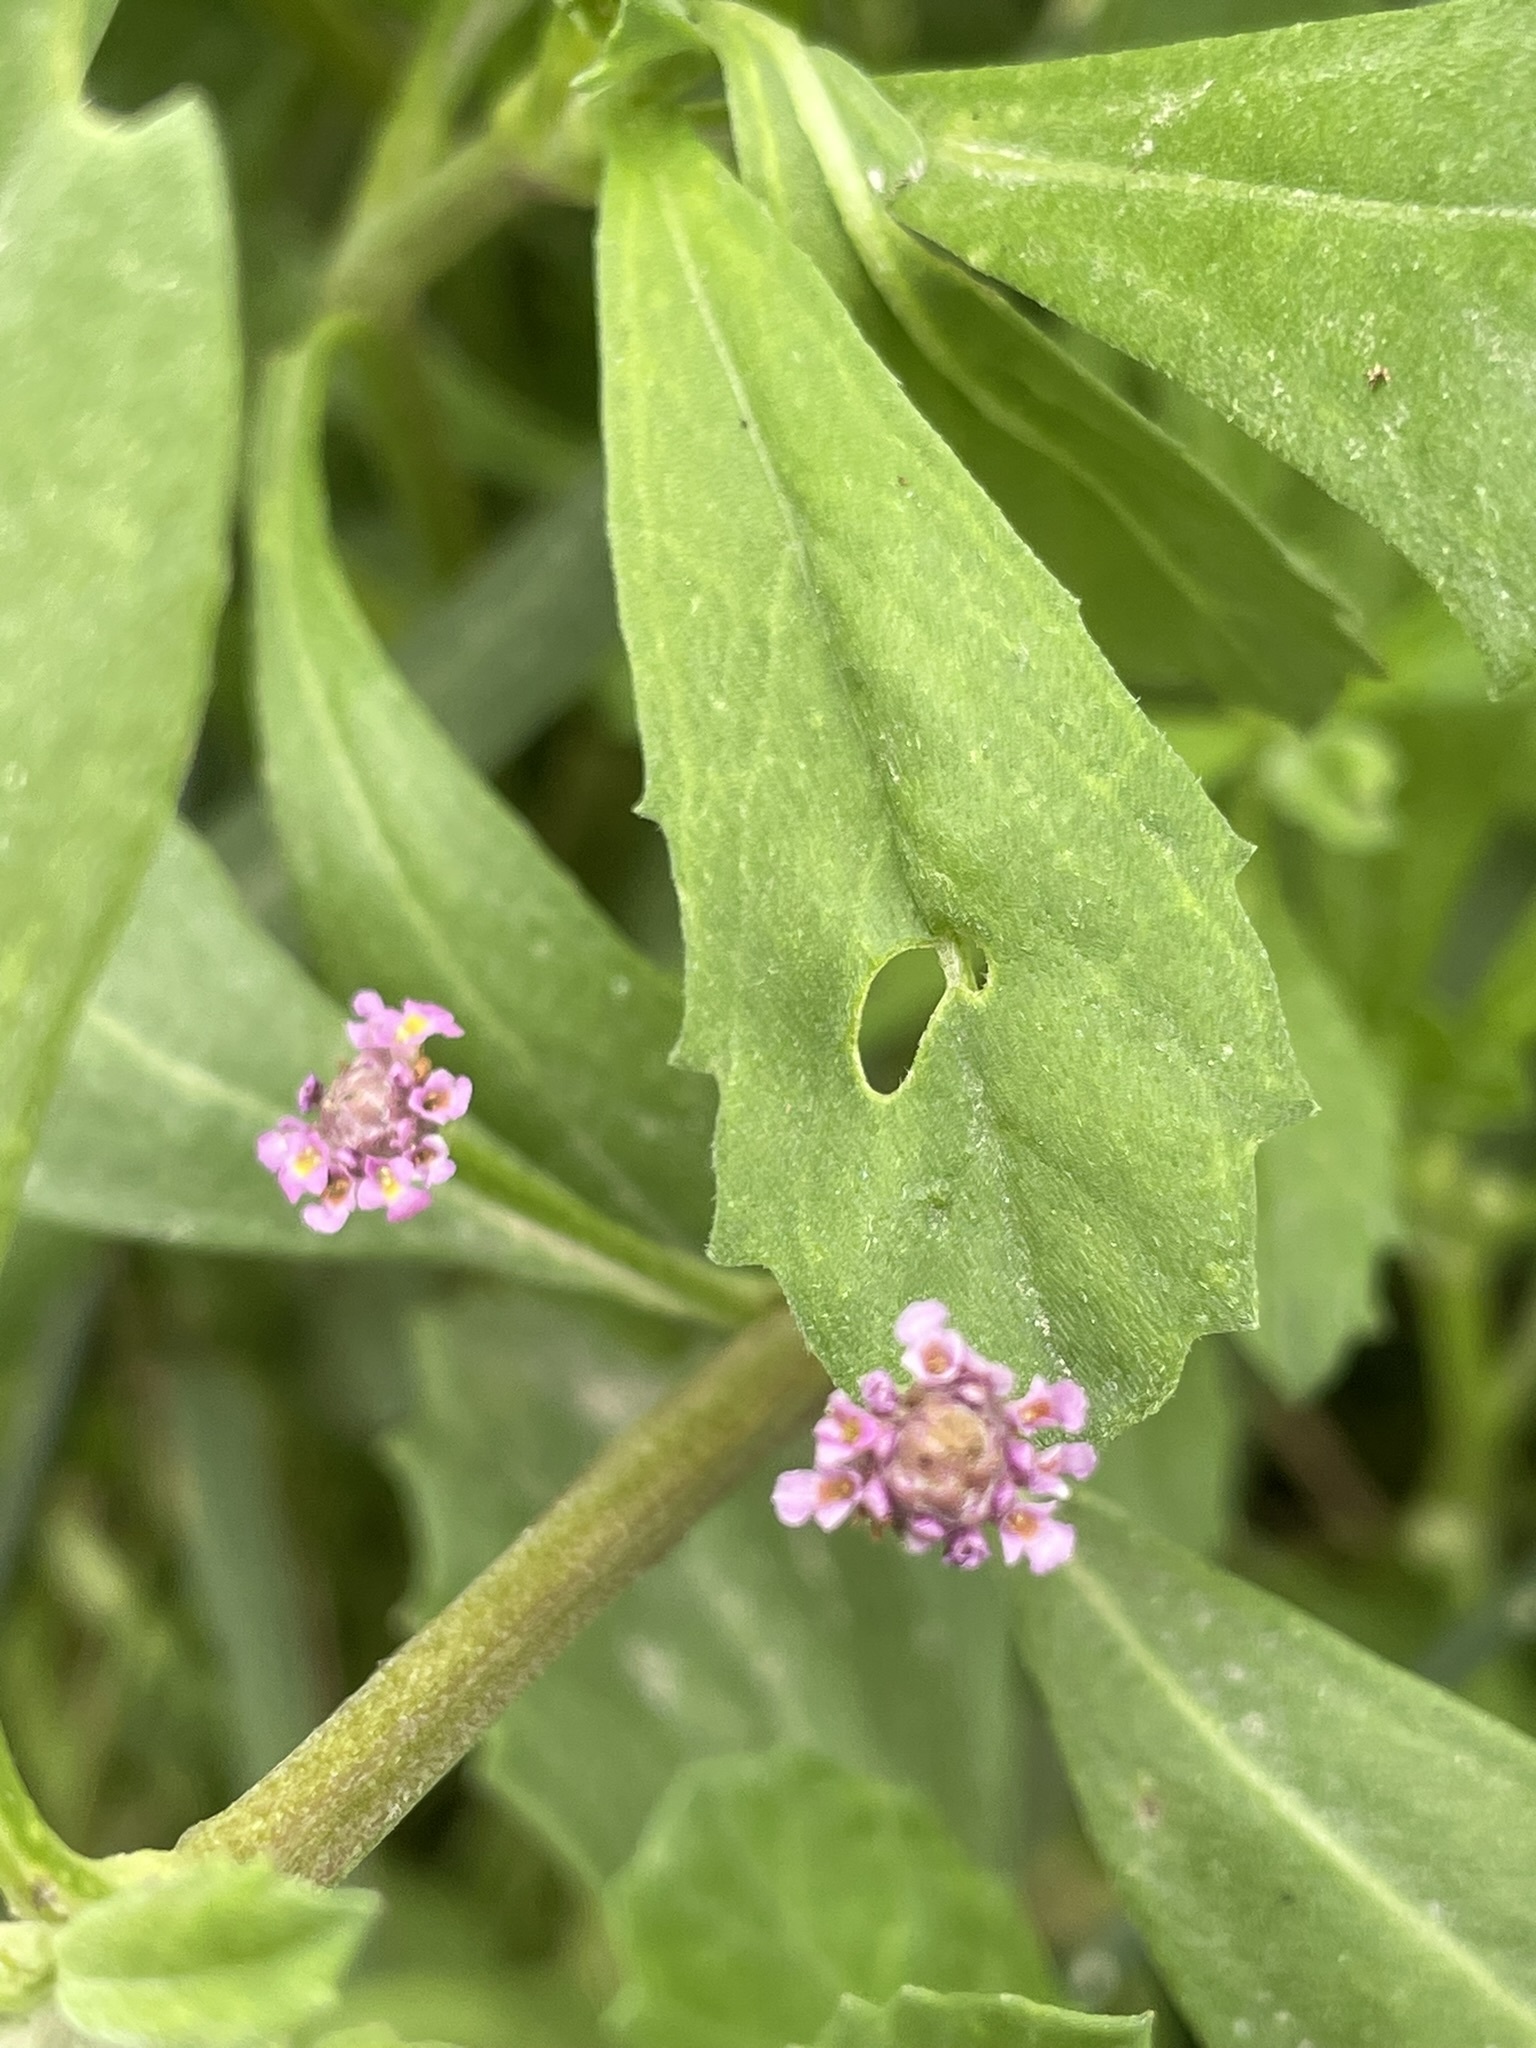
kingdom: Plantae
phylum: Tracheophyta
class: Magnoliopsida
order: Lamiales
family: Verbenaceae
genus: Phyla
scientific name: Phyla nodiflora
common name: Frogfruit
